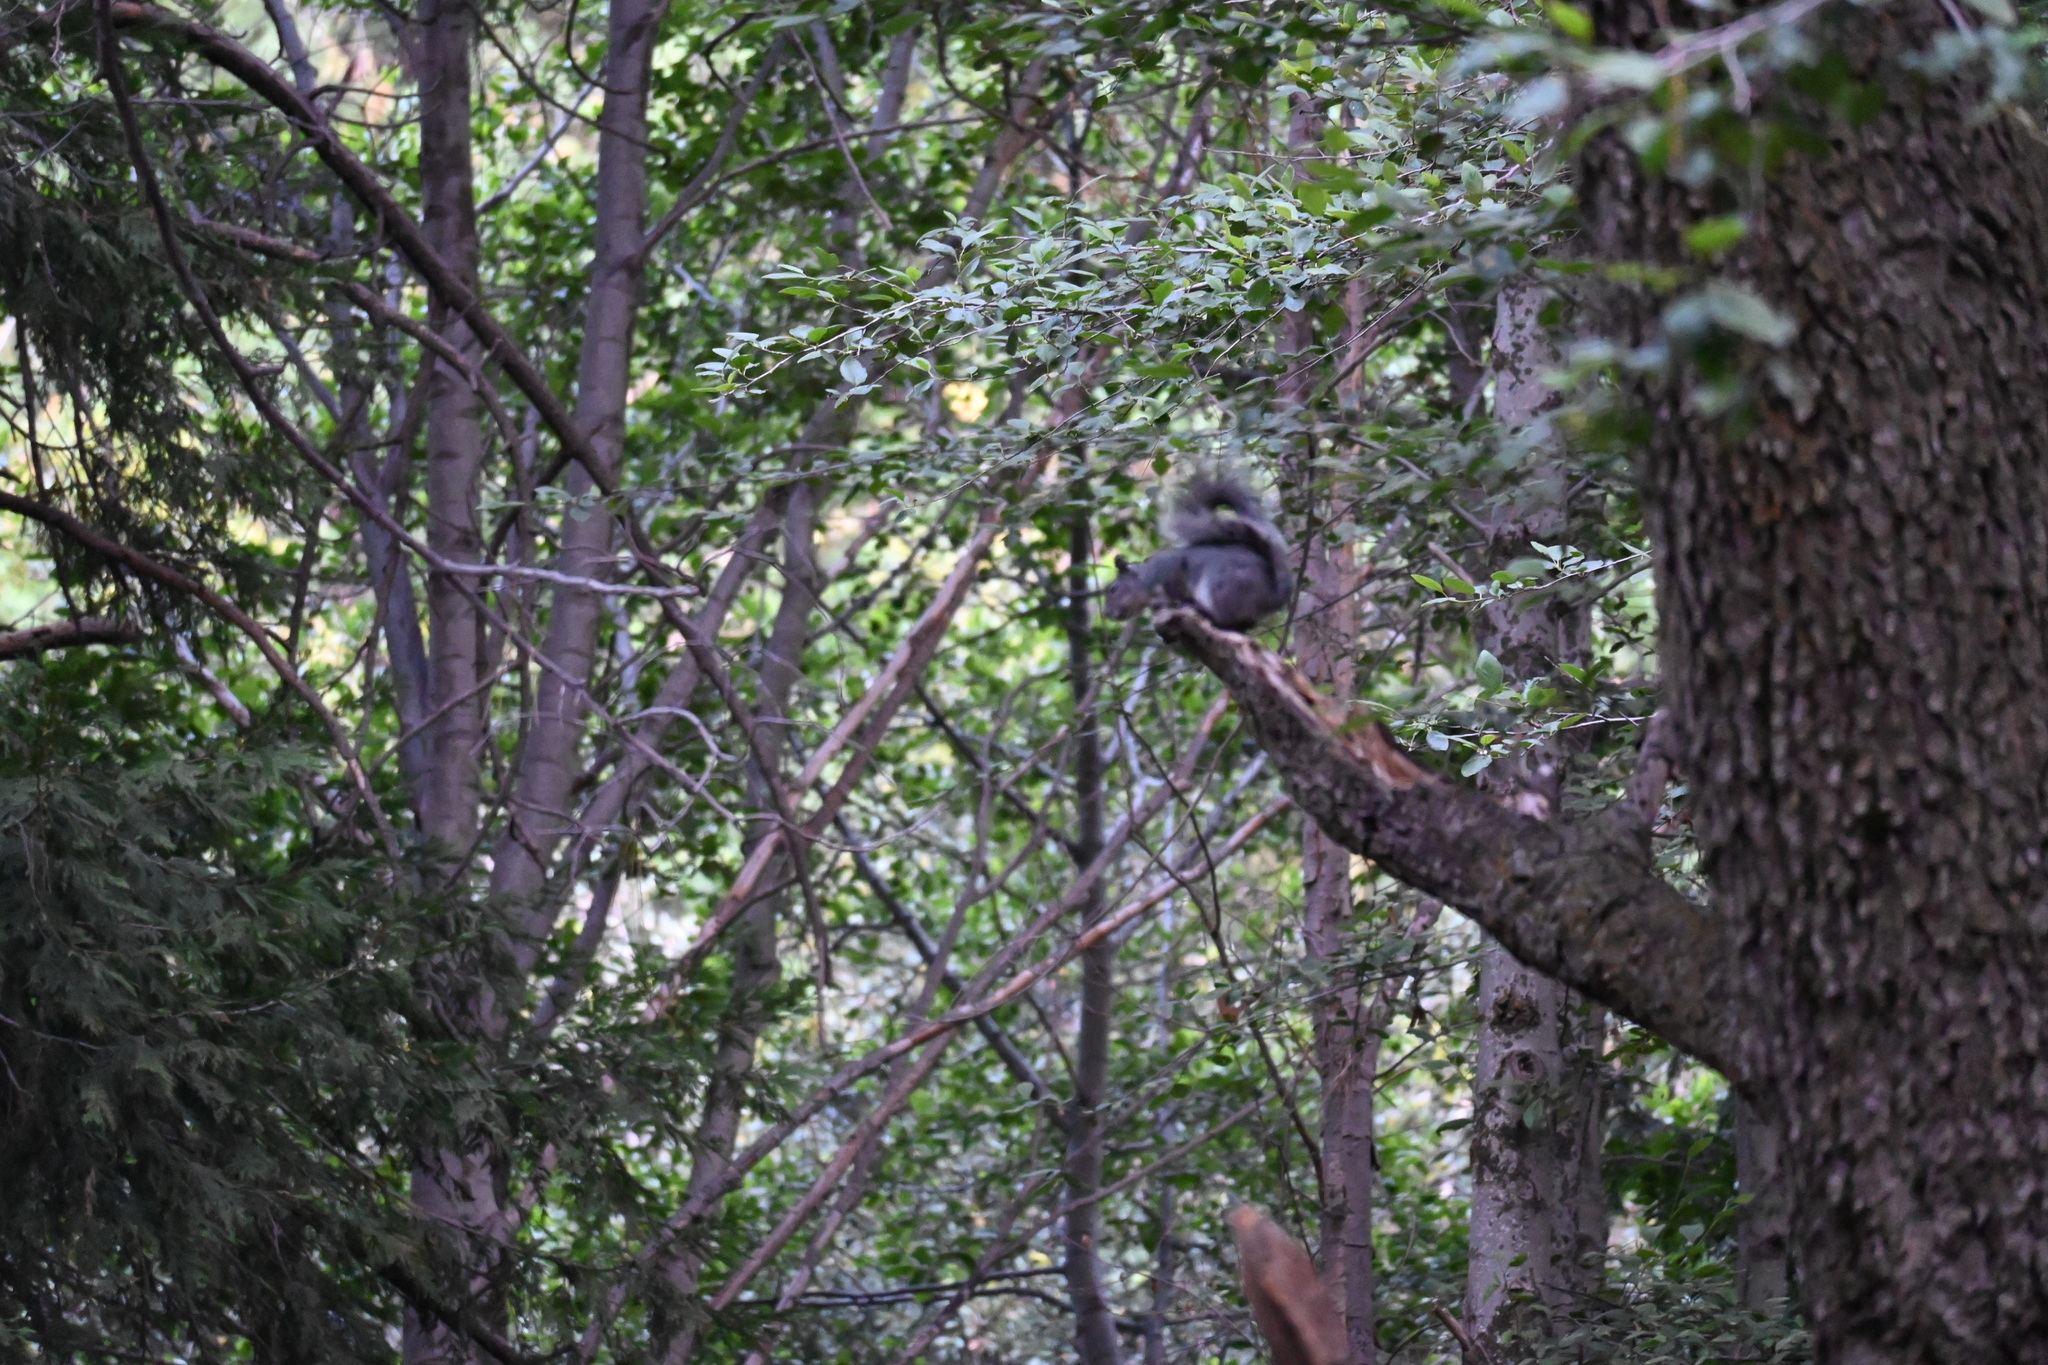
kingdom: Animalia
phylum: Chordata
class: Mammalia
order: Rodentia
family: Sciuridae
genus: Sciurus
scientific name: Sciurus griseus
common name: Western gray squirrel
